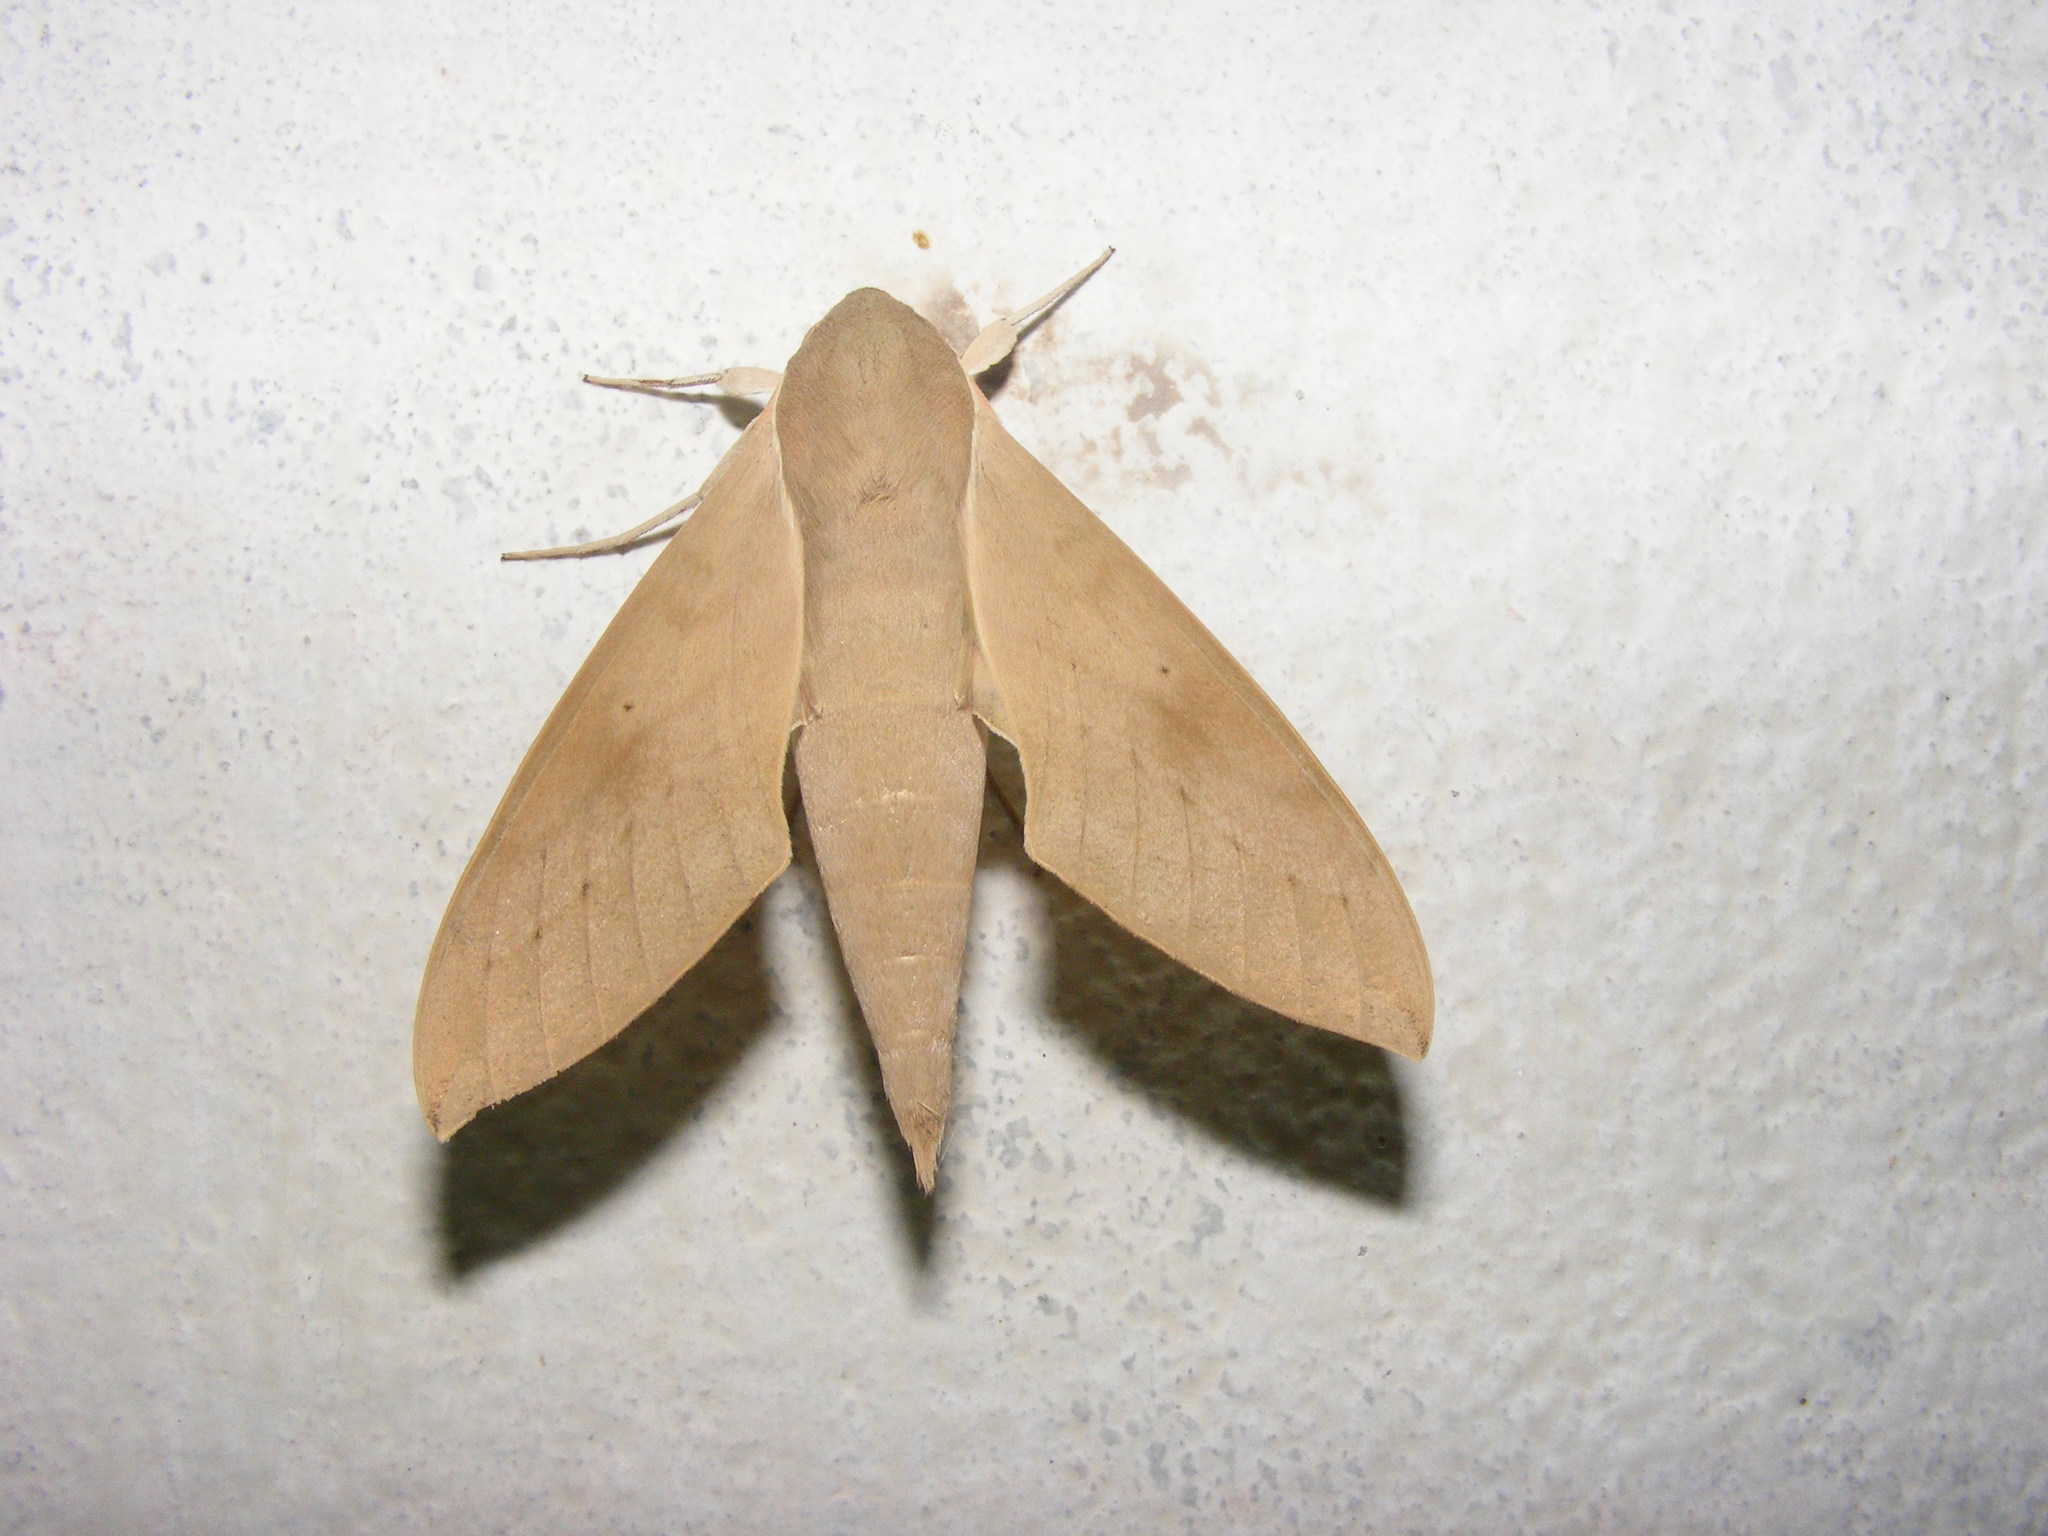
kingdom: Animalia
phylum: Arthropoda
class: Insecta
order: Lepidoptera
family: Sphingidae
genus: Theretra
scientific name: Theretra clotho
